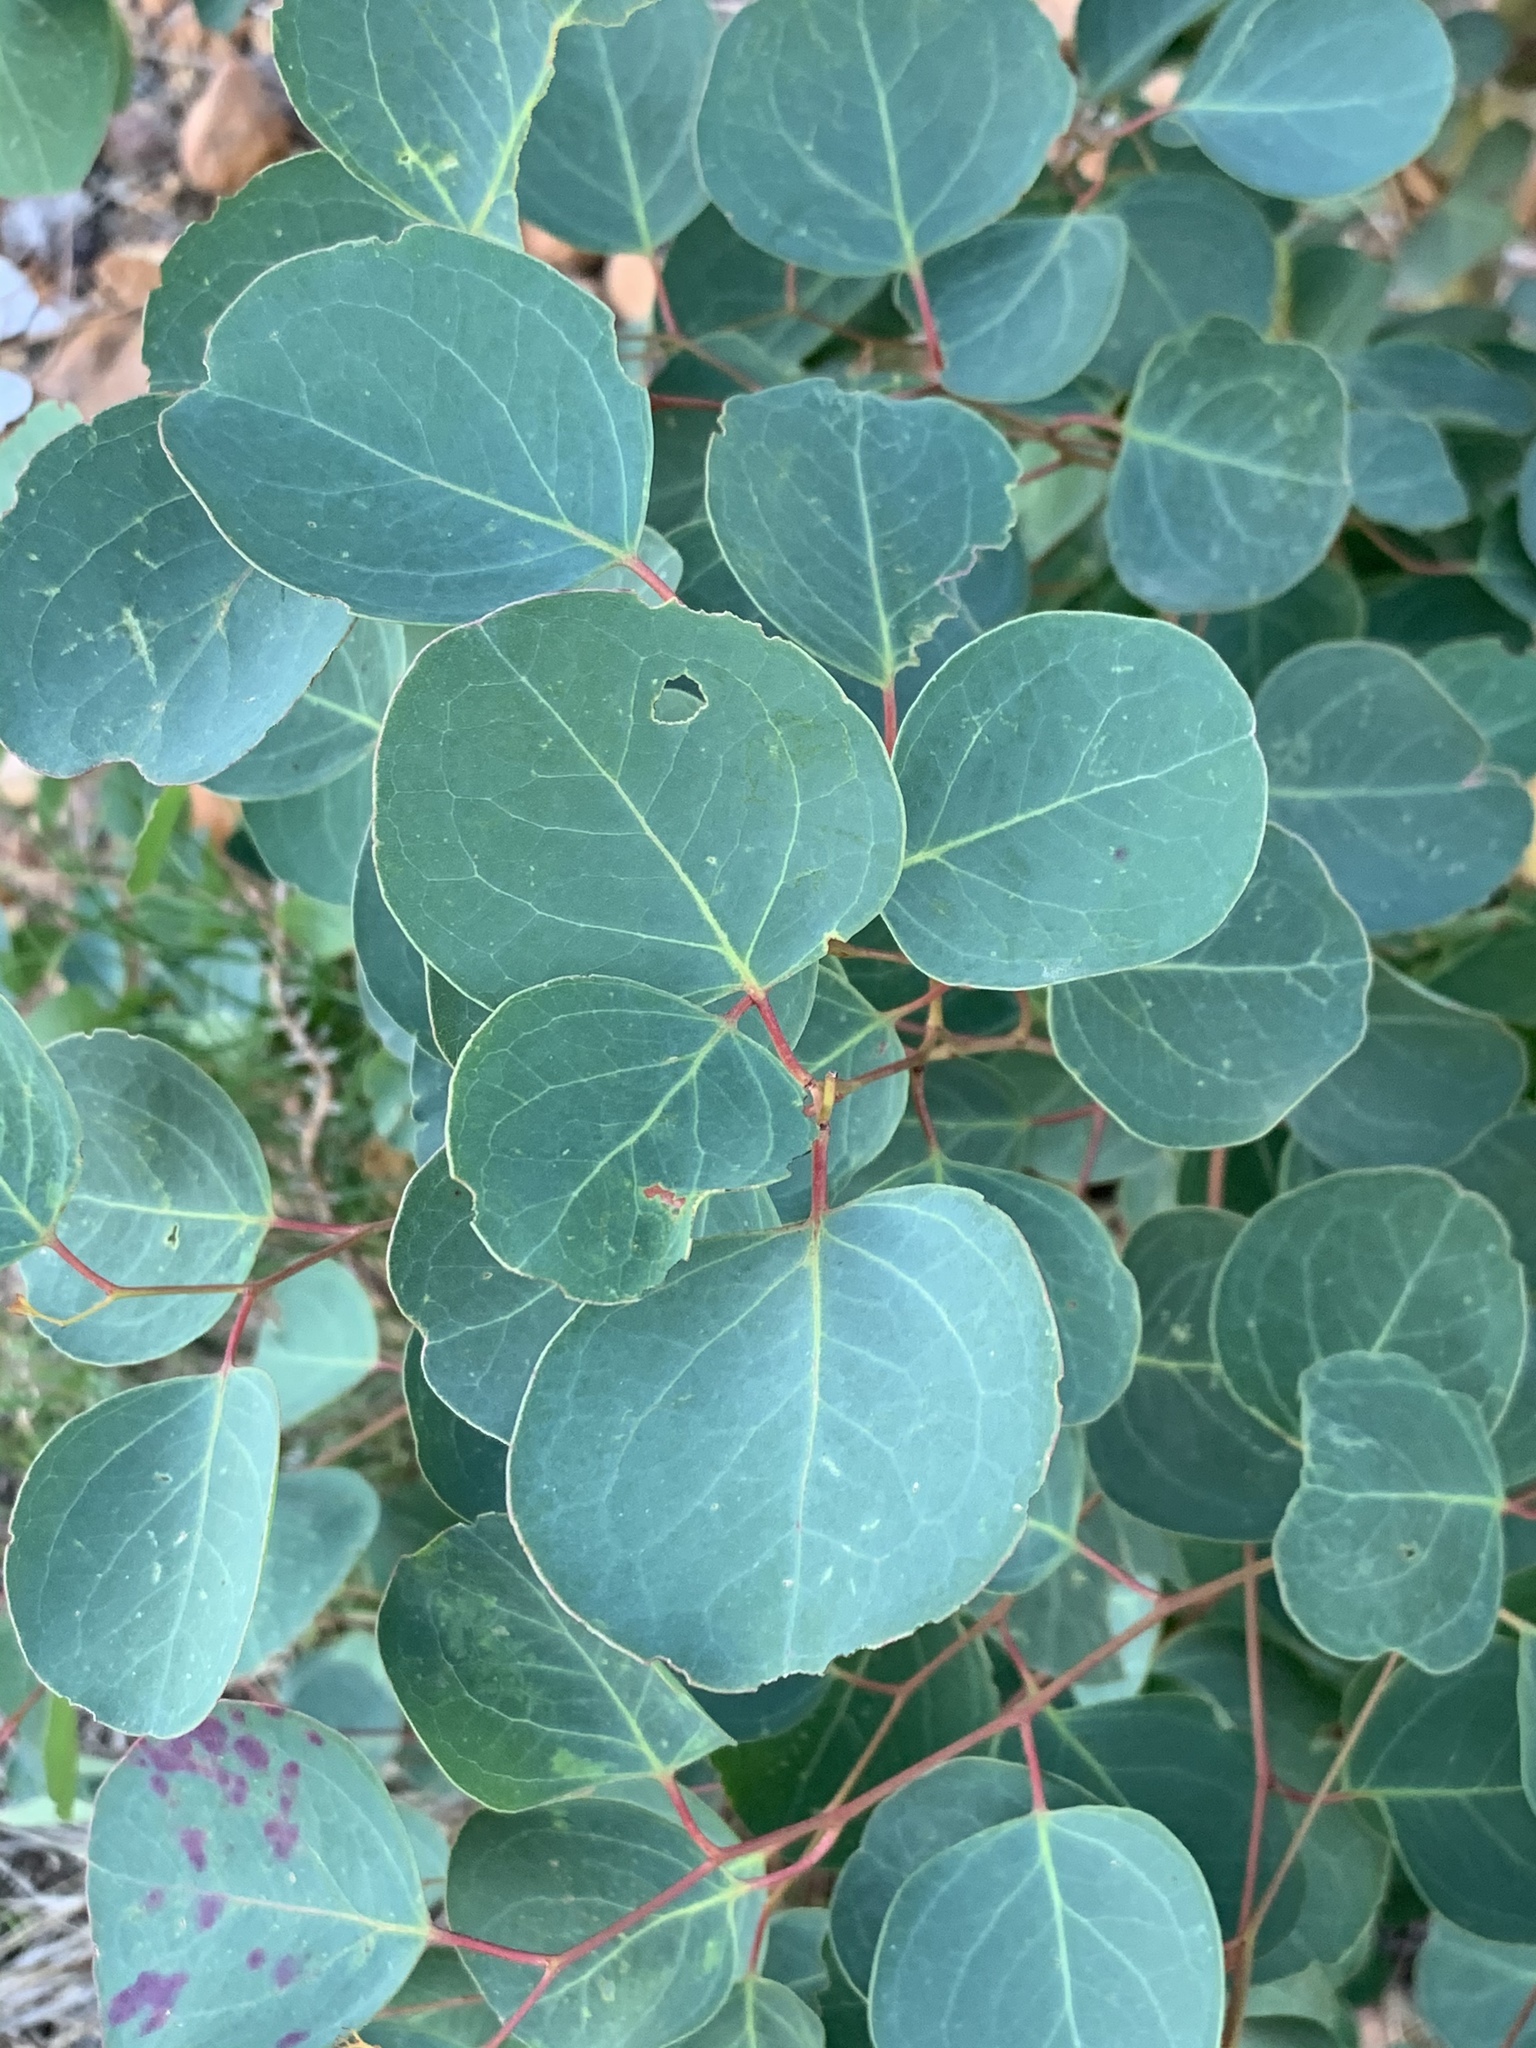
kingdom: Plantae
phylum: Tracheophyta
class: Magnoliopsida
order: Myrtales
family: Myrtaceae
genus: Eucalyptus
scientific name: Eucalyptus cladocalyx
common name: Sugargum
